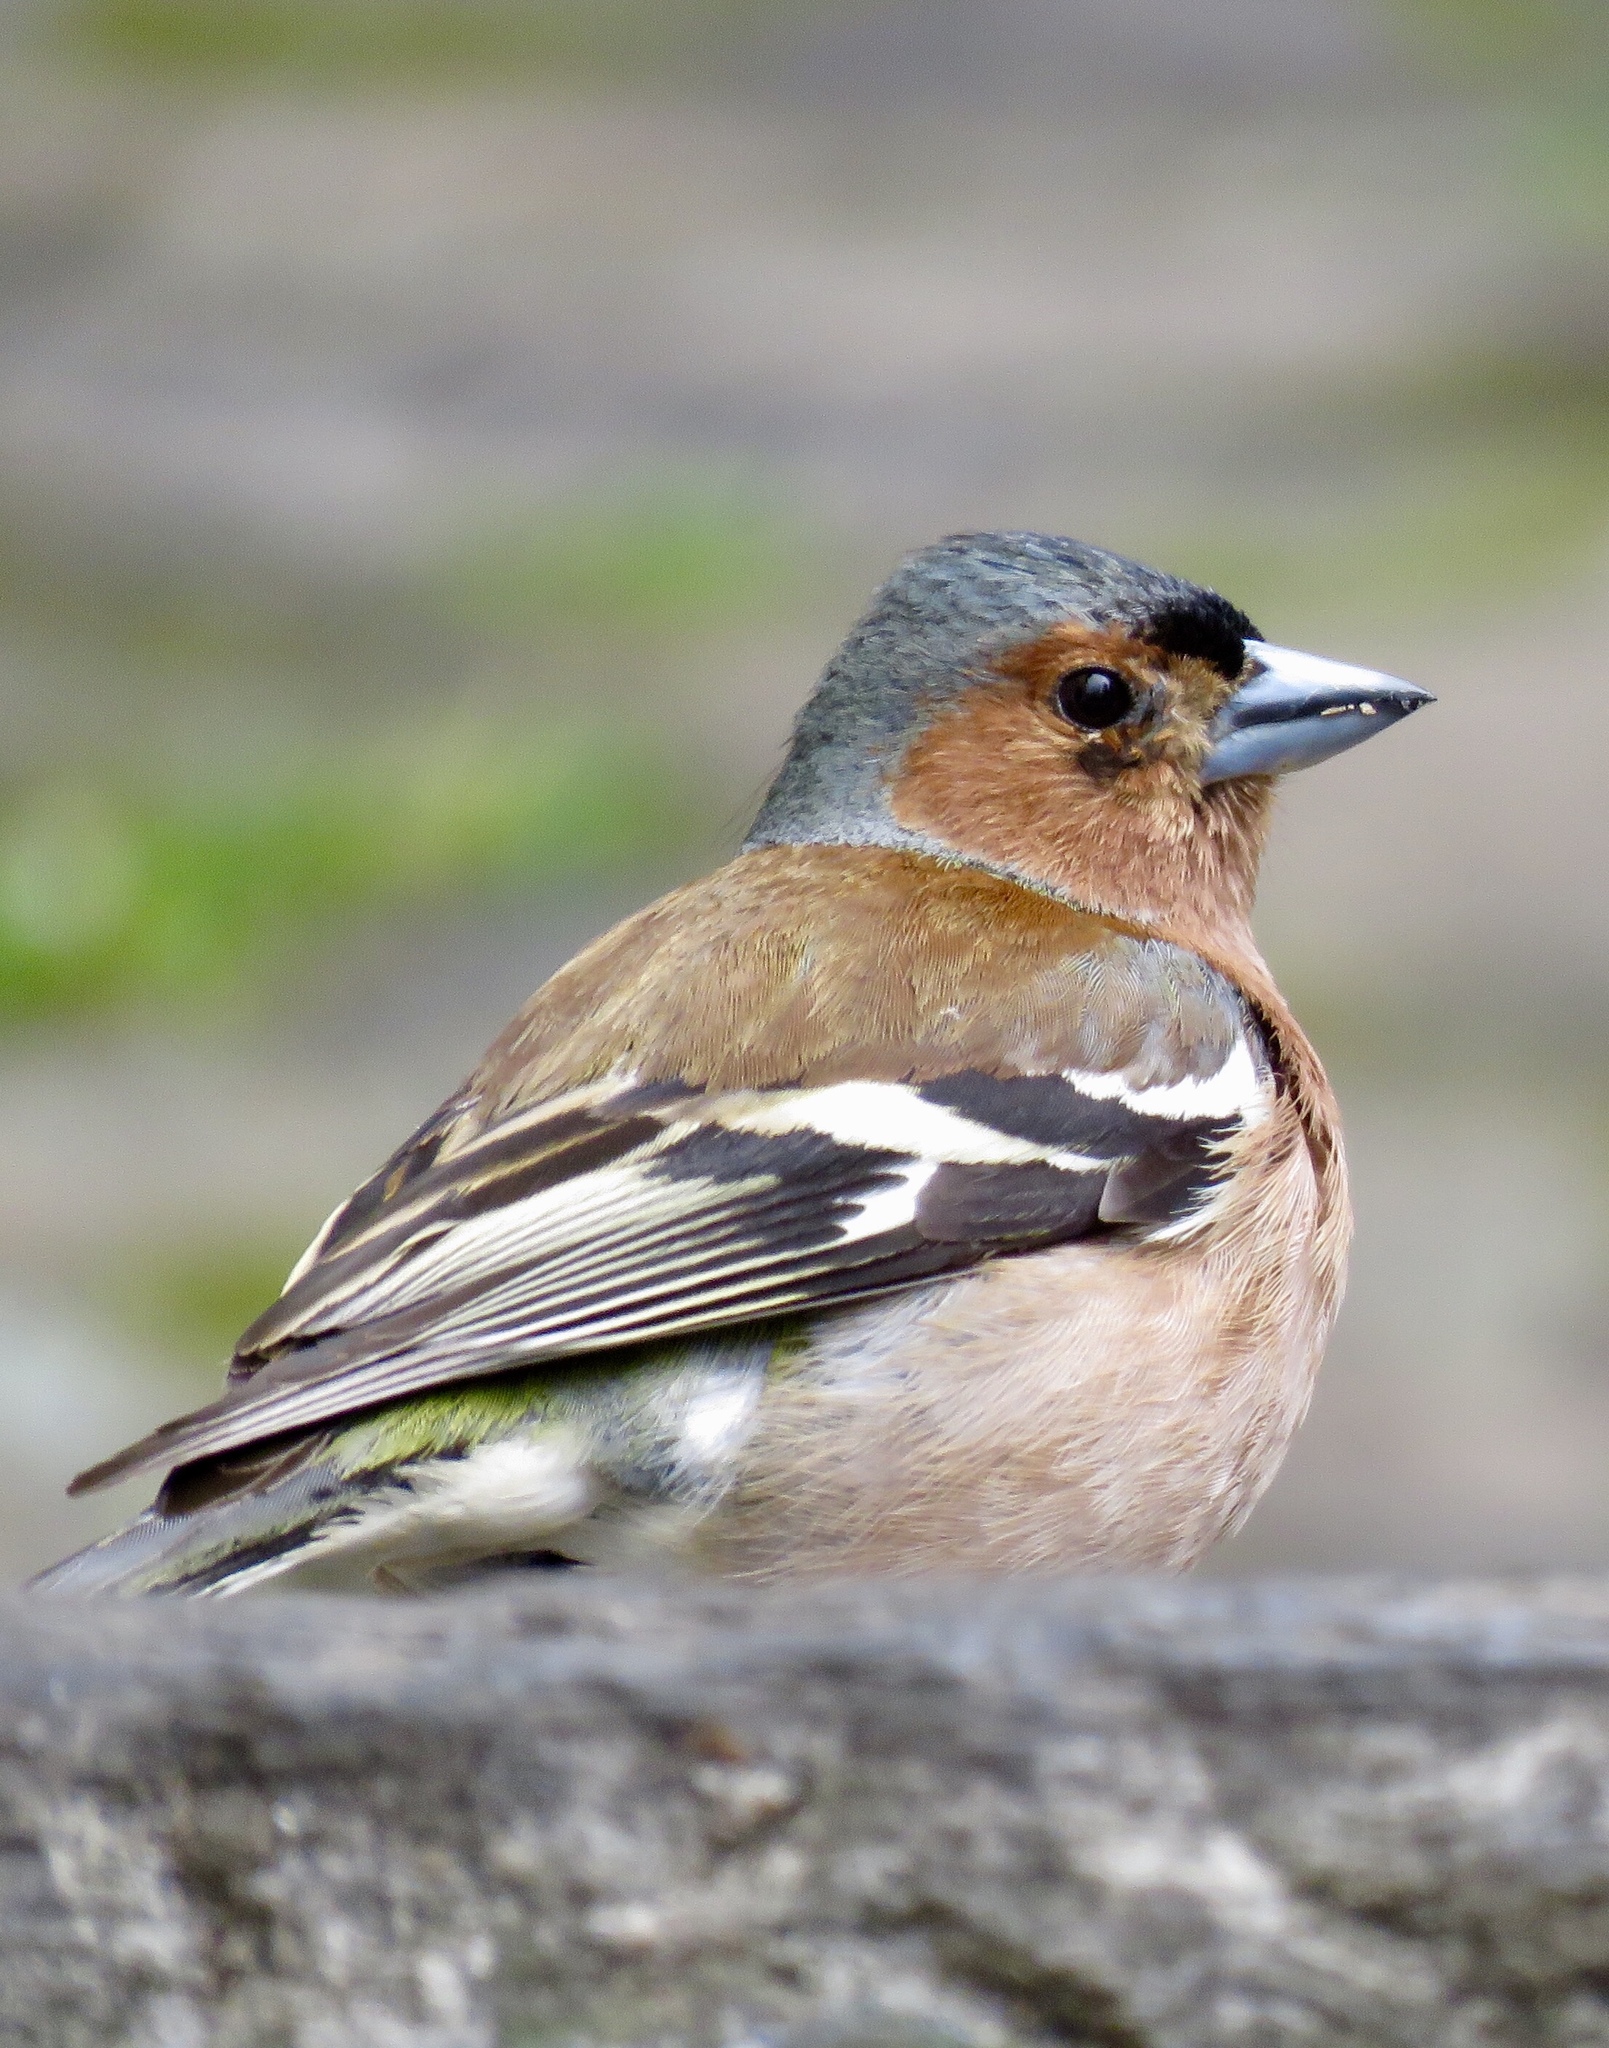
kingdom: Animalia
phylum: Chordata
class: Aves
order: Passeriformes
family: Fringillidae
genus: Fringilla
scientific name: Fringilla coelebs
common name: Common chaffinch
